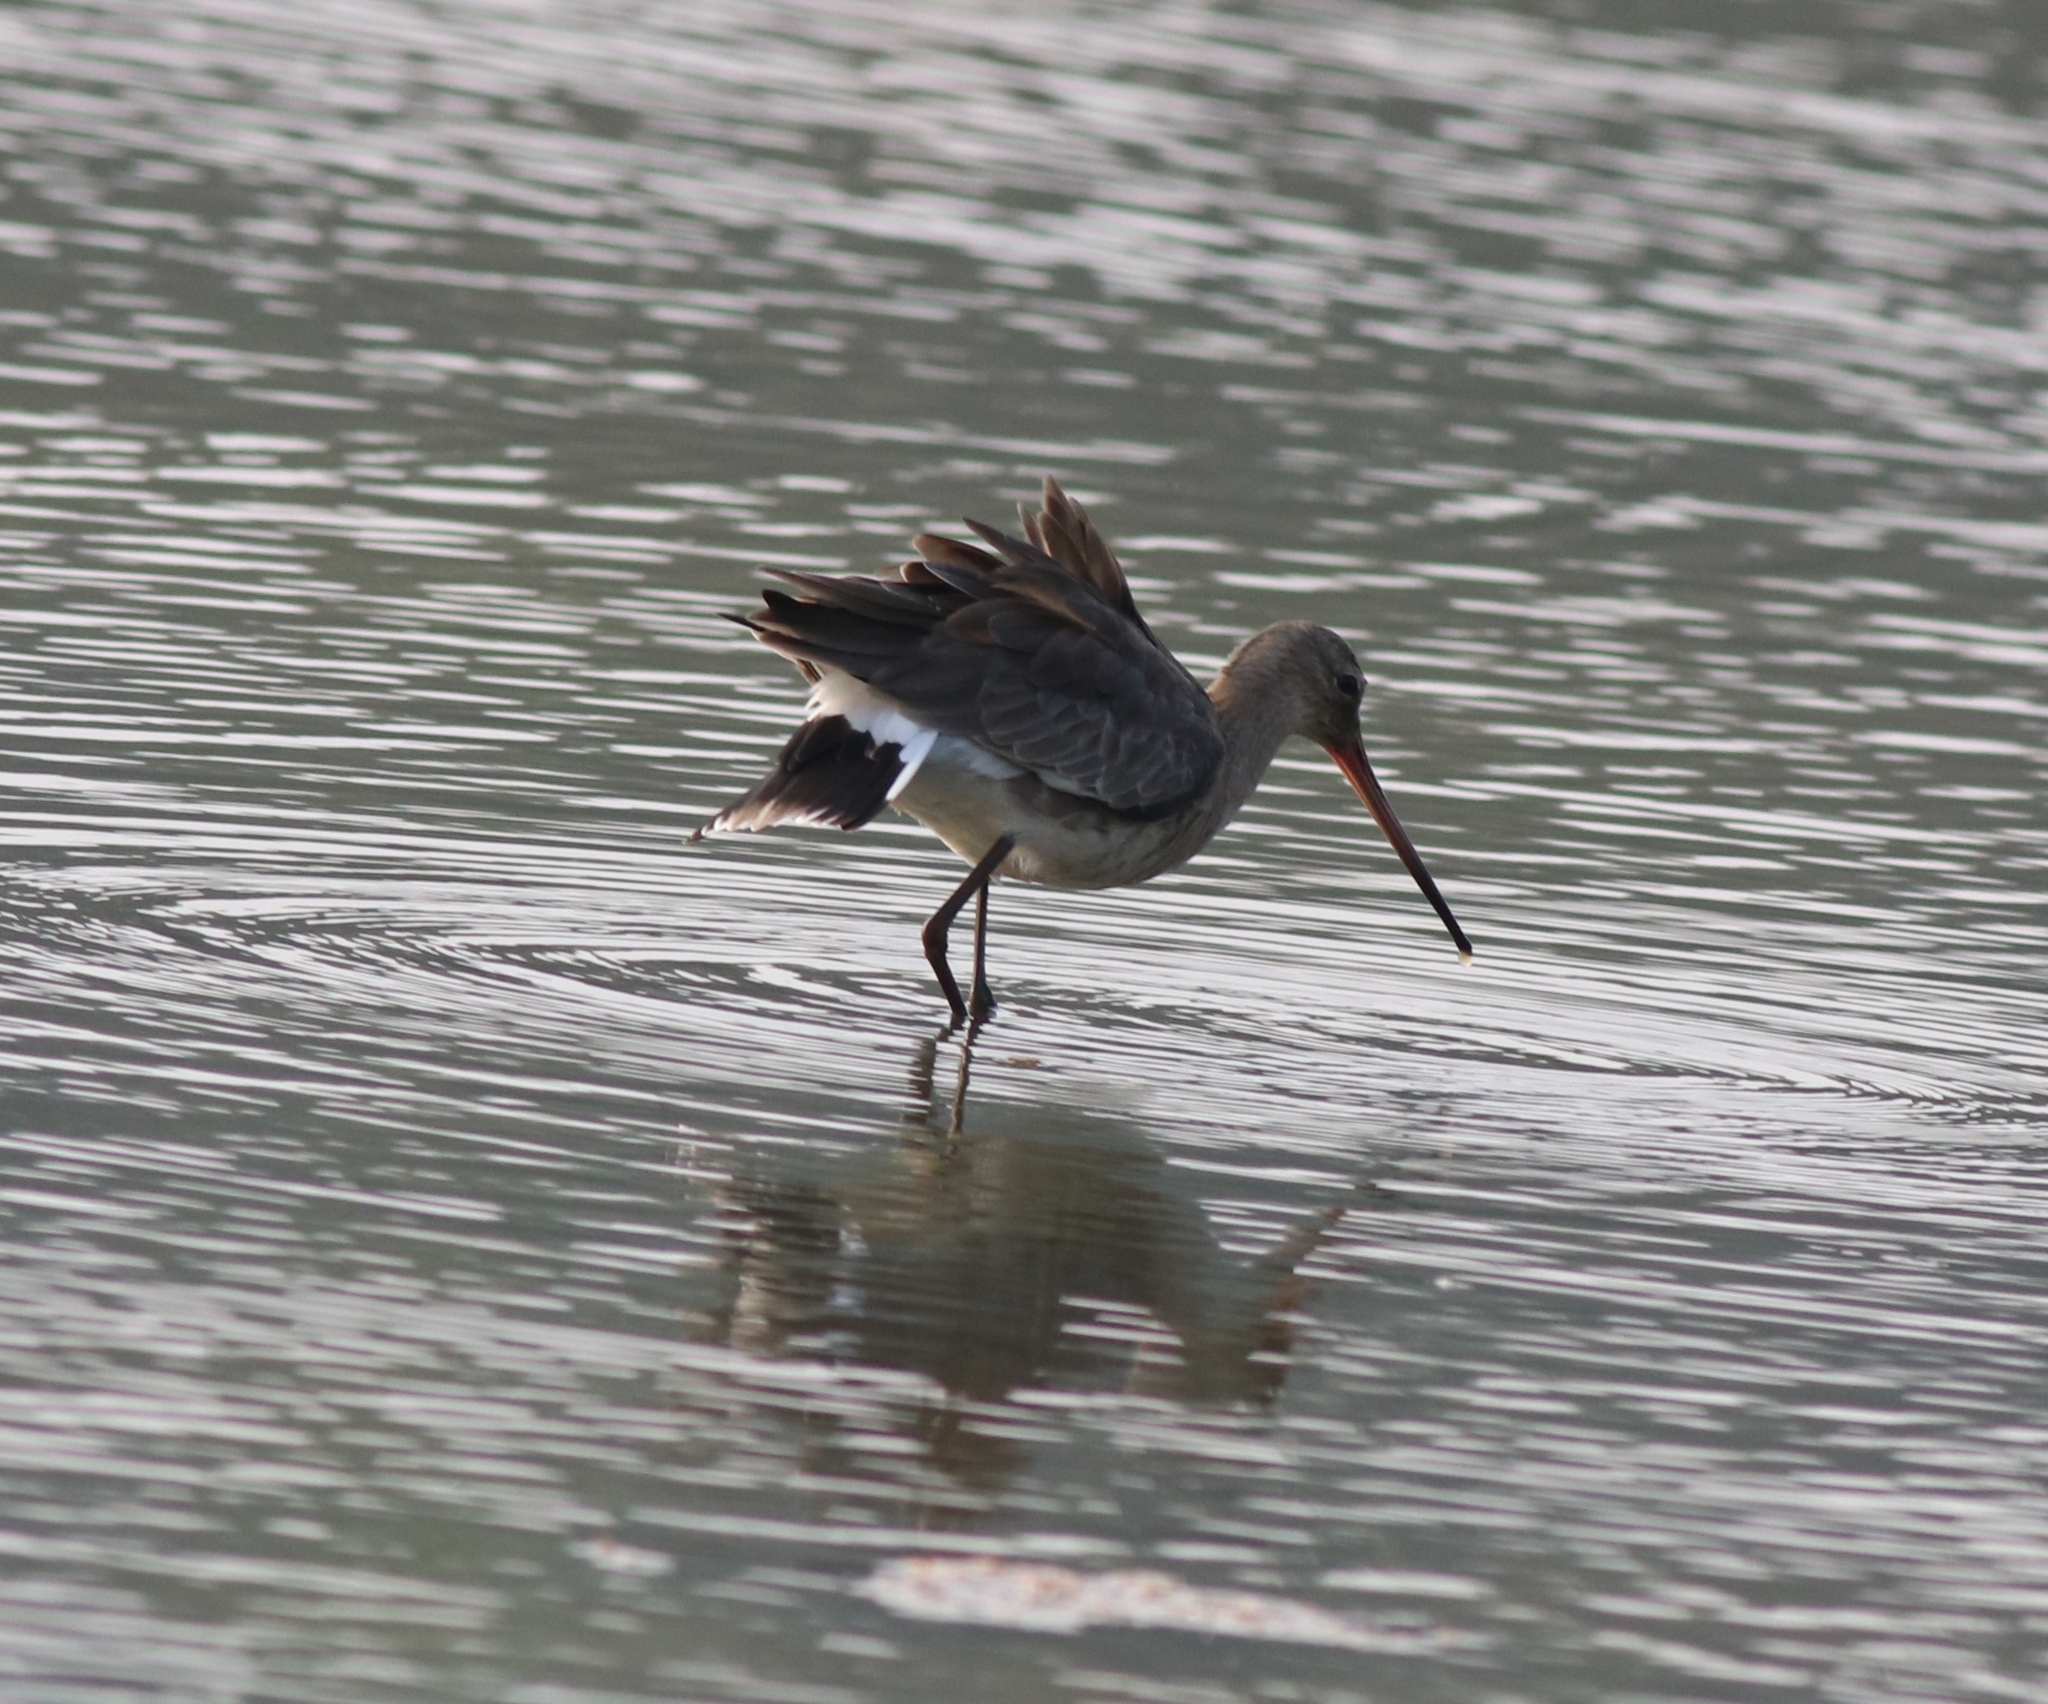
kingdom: Animalia
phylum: Chordata
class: Aves
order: Charadriiformes
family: Scolopacidae
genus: Limosa
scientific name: Limosa limosa
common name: Black-tailed godwit
